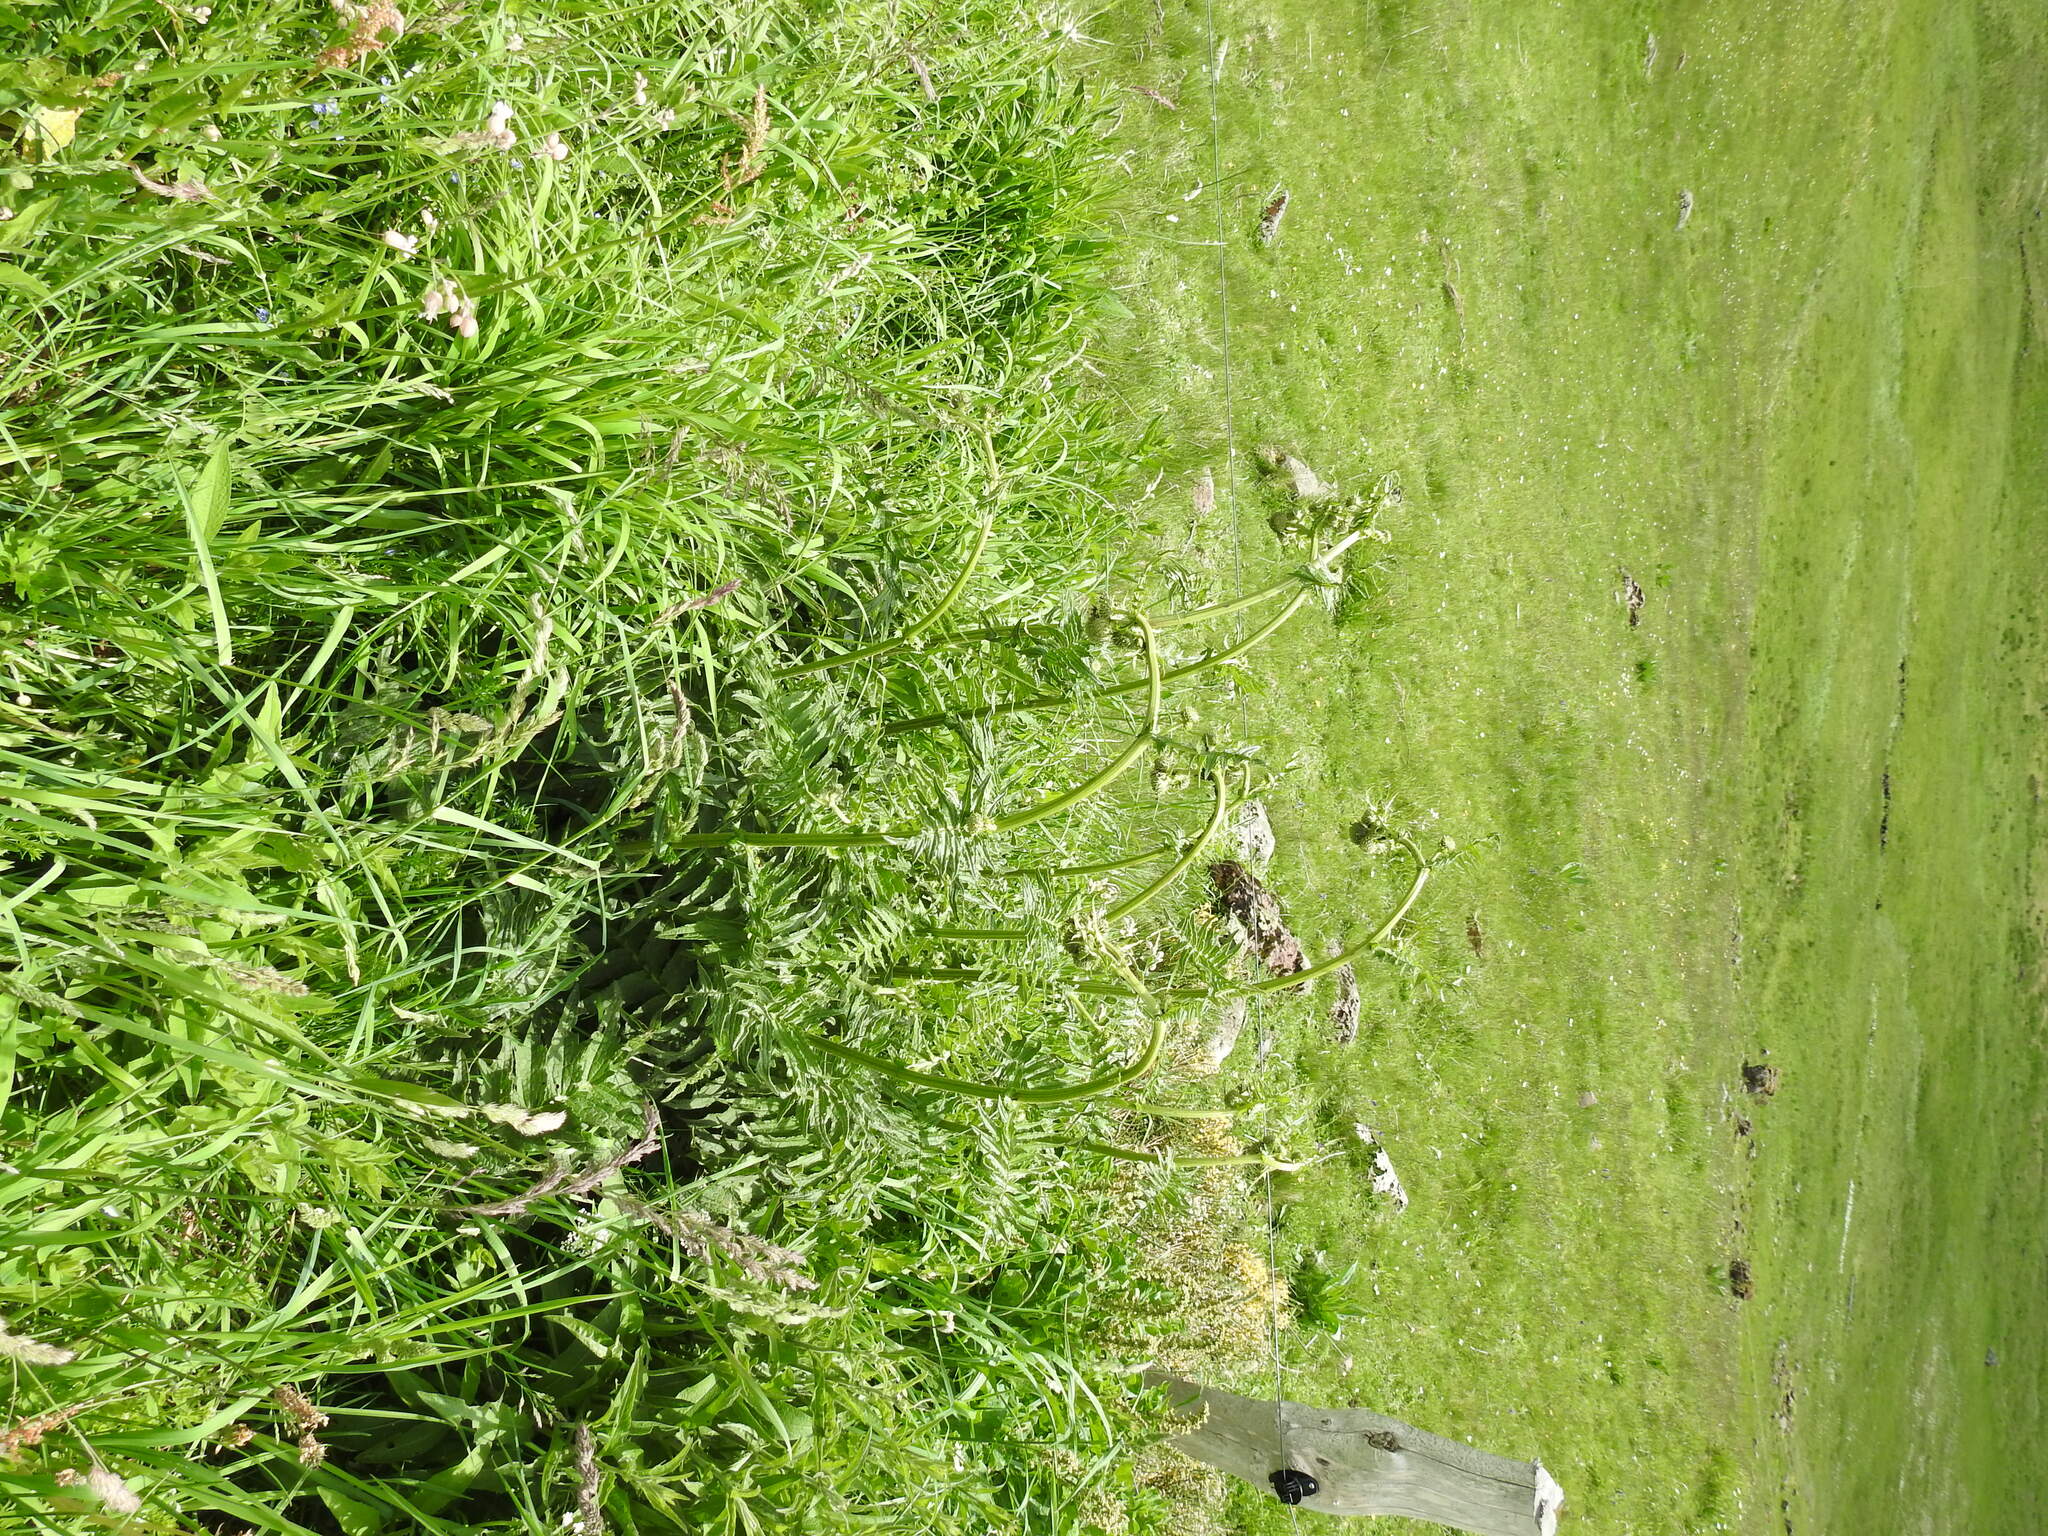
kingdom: Plantae
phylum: Tracheophyta
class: Magnoliopsida
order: Asterales
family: Asteraceae
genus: Cirsium
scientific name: Cirsium erisithales
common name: Yellow thistle
